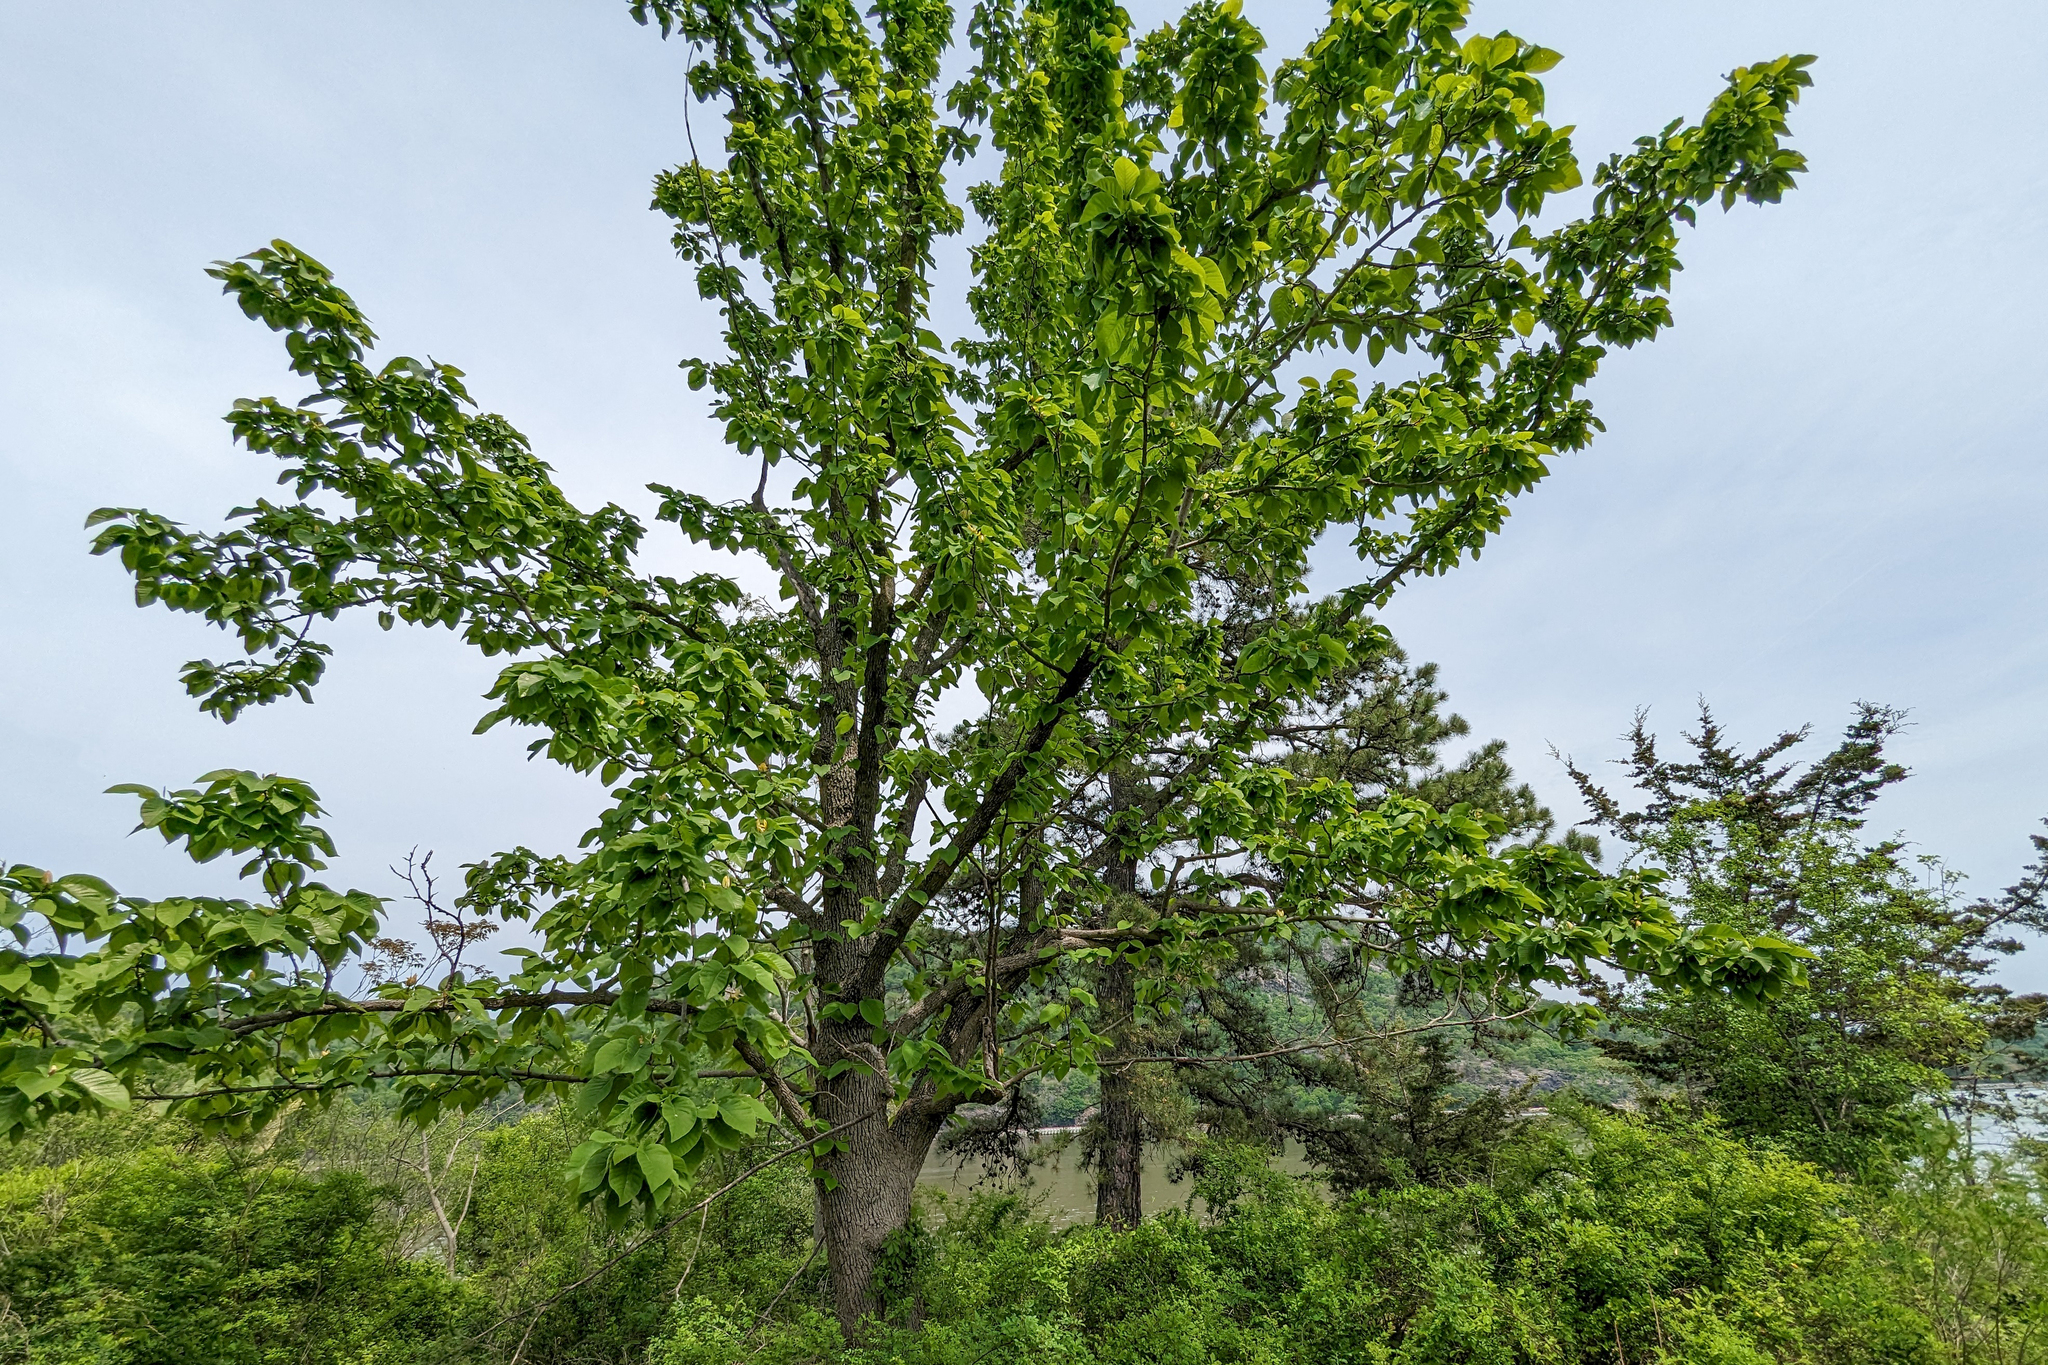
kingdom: Plantae
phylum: Tracheophyta
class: Magnoliopsida
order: Magnoliales
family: Magnoliaceae
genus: Magnolia
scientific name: Magnolia acuminata
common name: Cucumber magnolia
